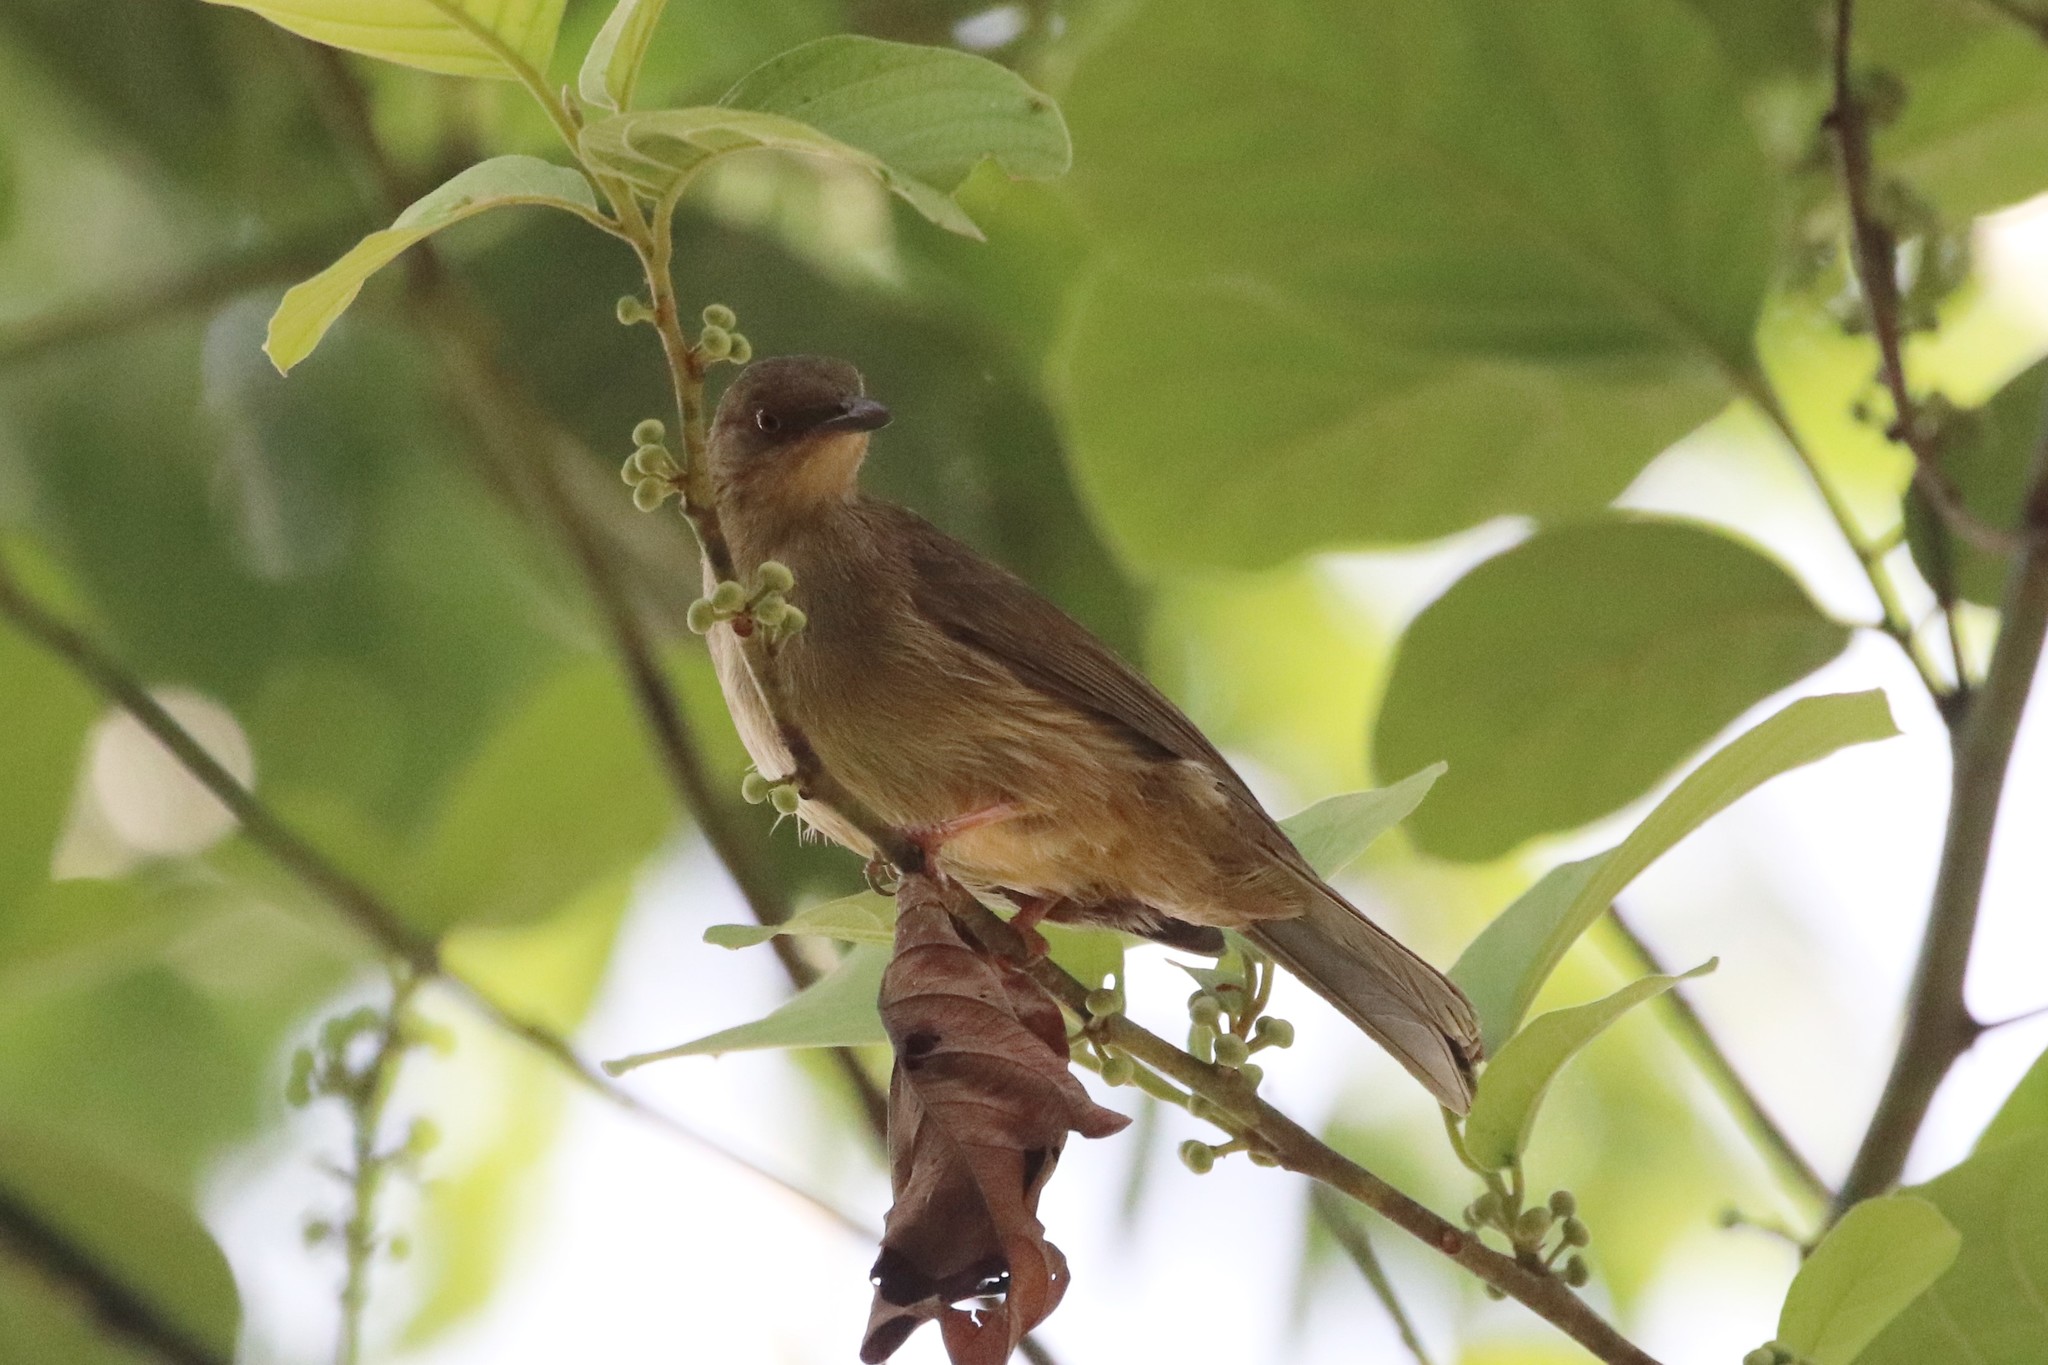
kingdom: Animalia
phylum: Chordata
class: Aves
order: Passeriformes
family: Pycnonotidae
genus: Pycnonotus
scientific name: Pycnonotus brunneus
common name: Asian red-eyed bulbul
